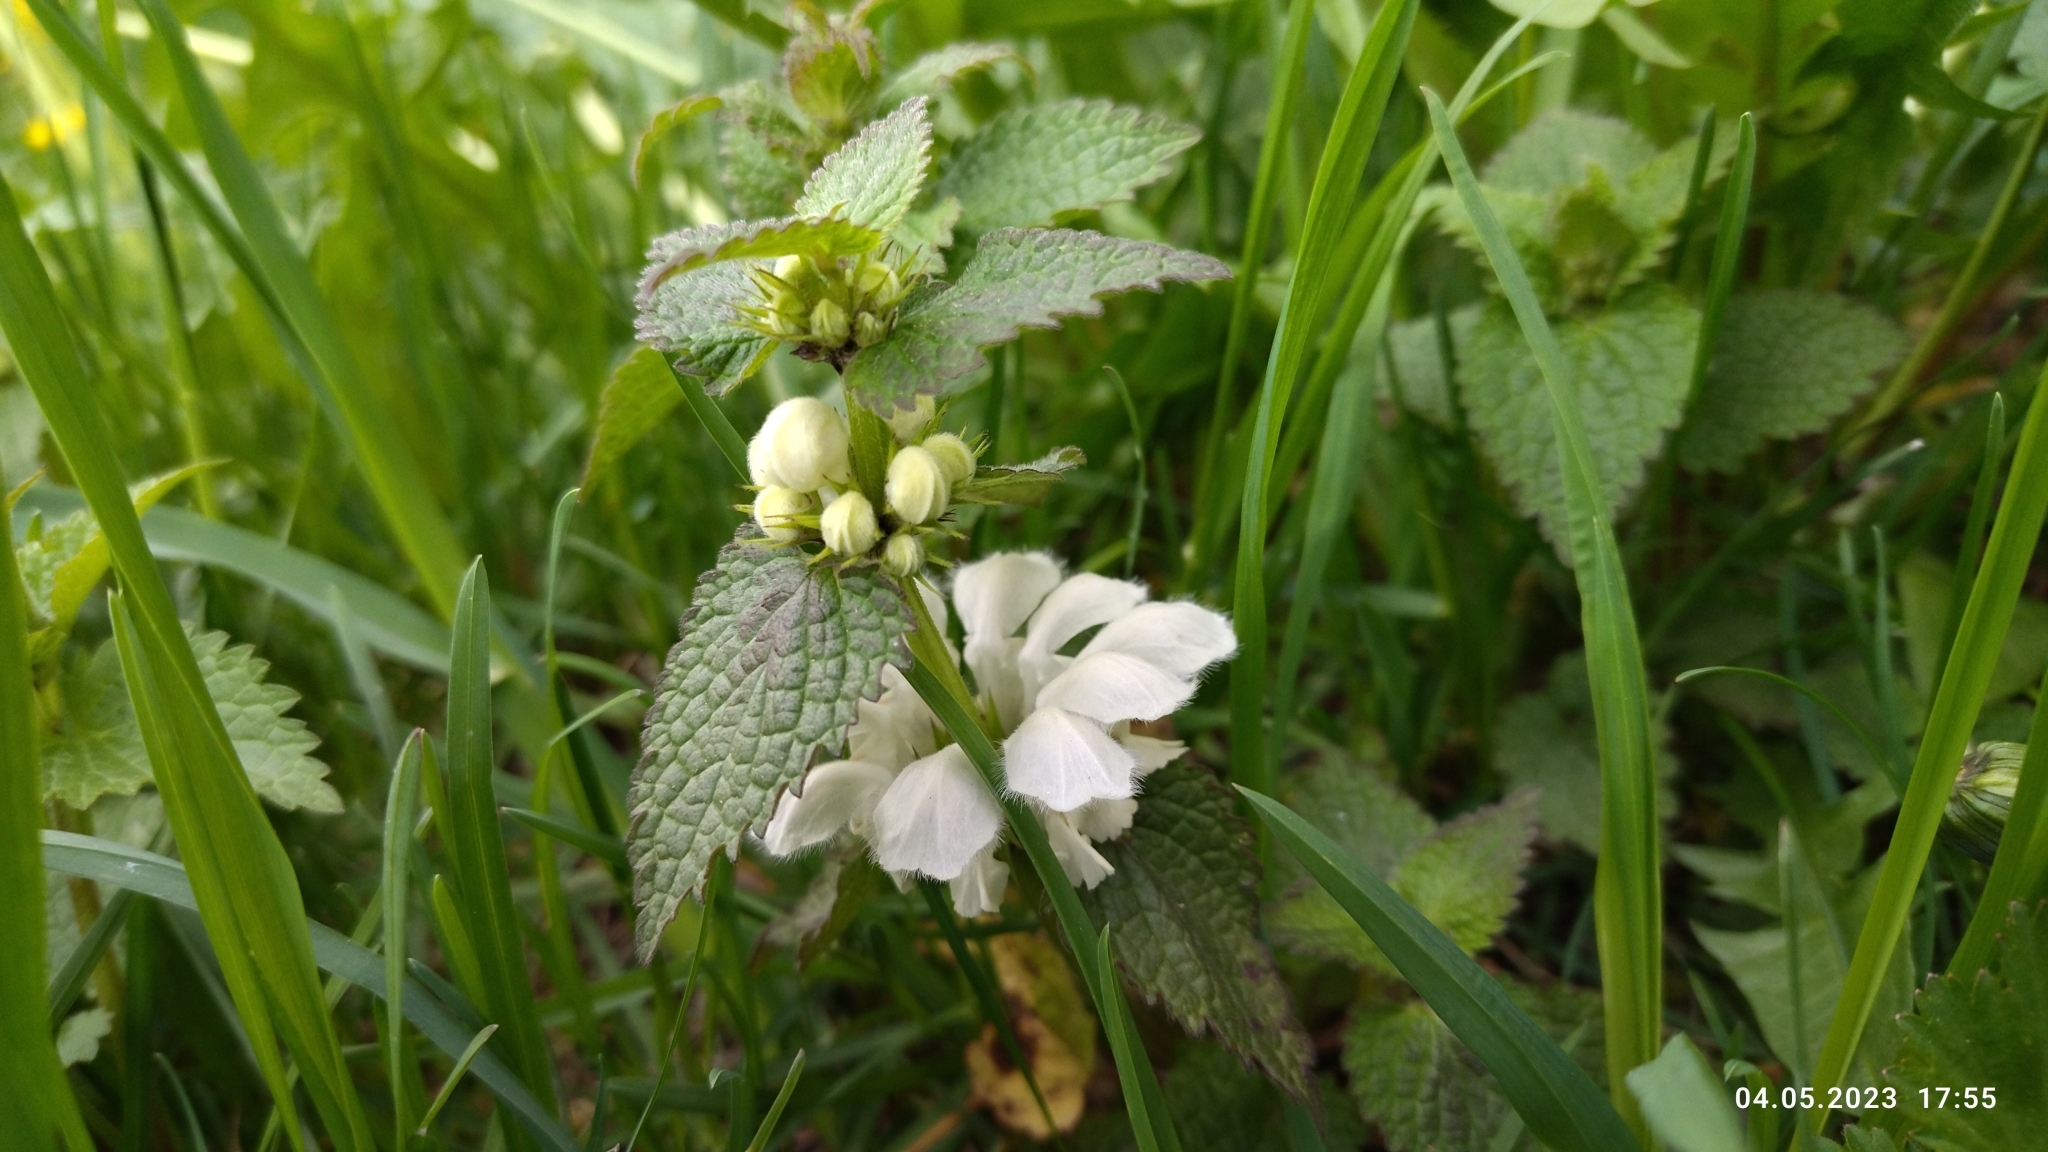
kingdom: Plantae
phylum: Tracheophyta
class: Magnoliopsida
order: Lamiales
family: Lamiaceae
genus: Lamium
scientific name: Lamium album
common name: White dead-nettle
